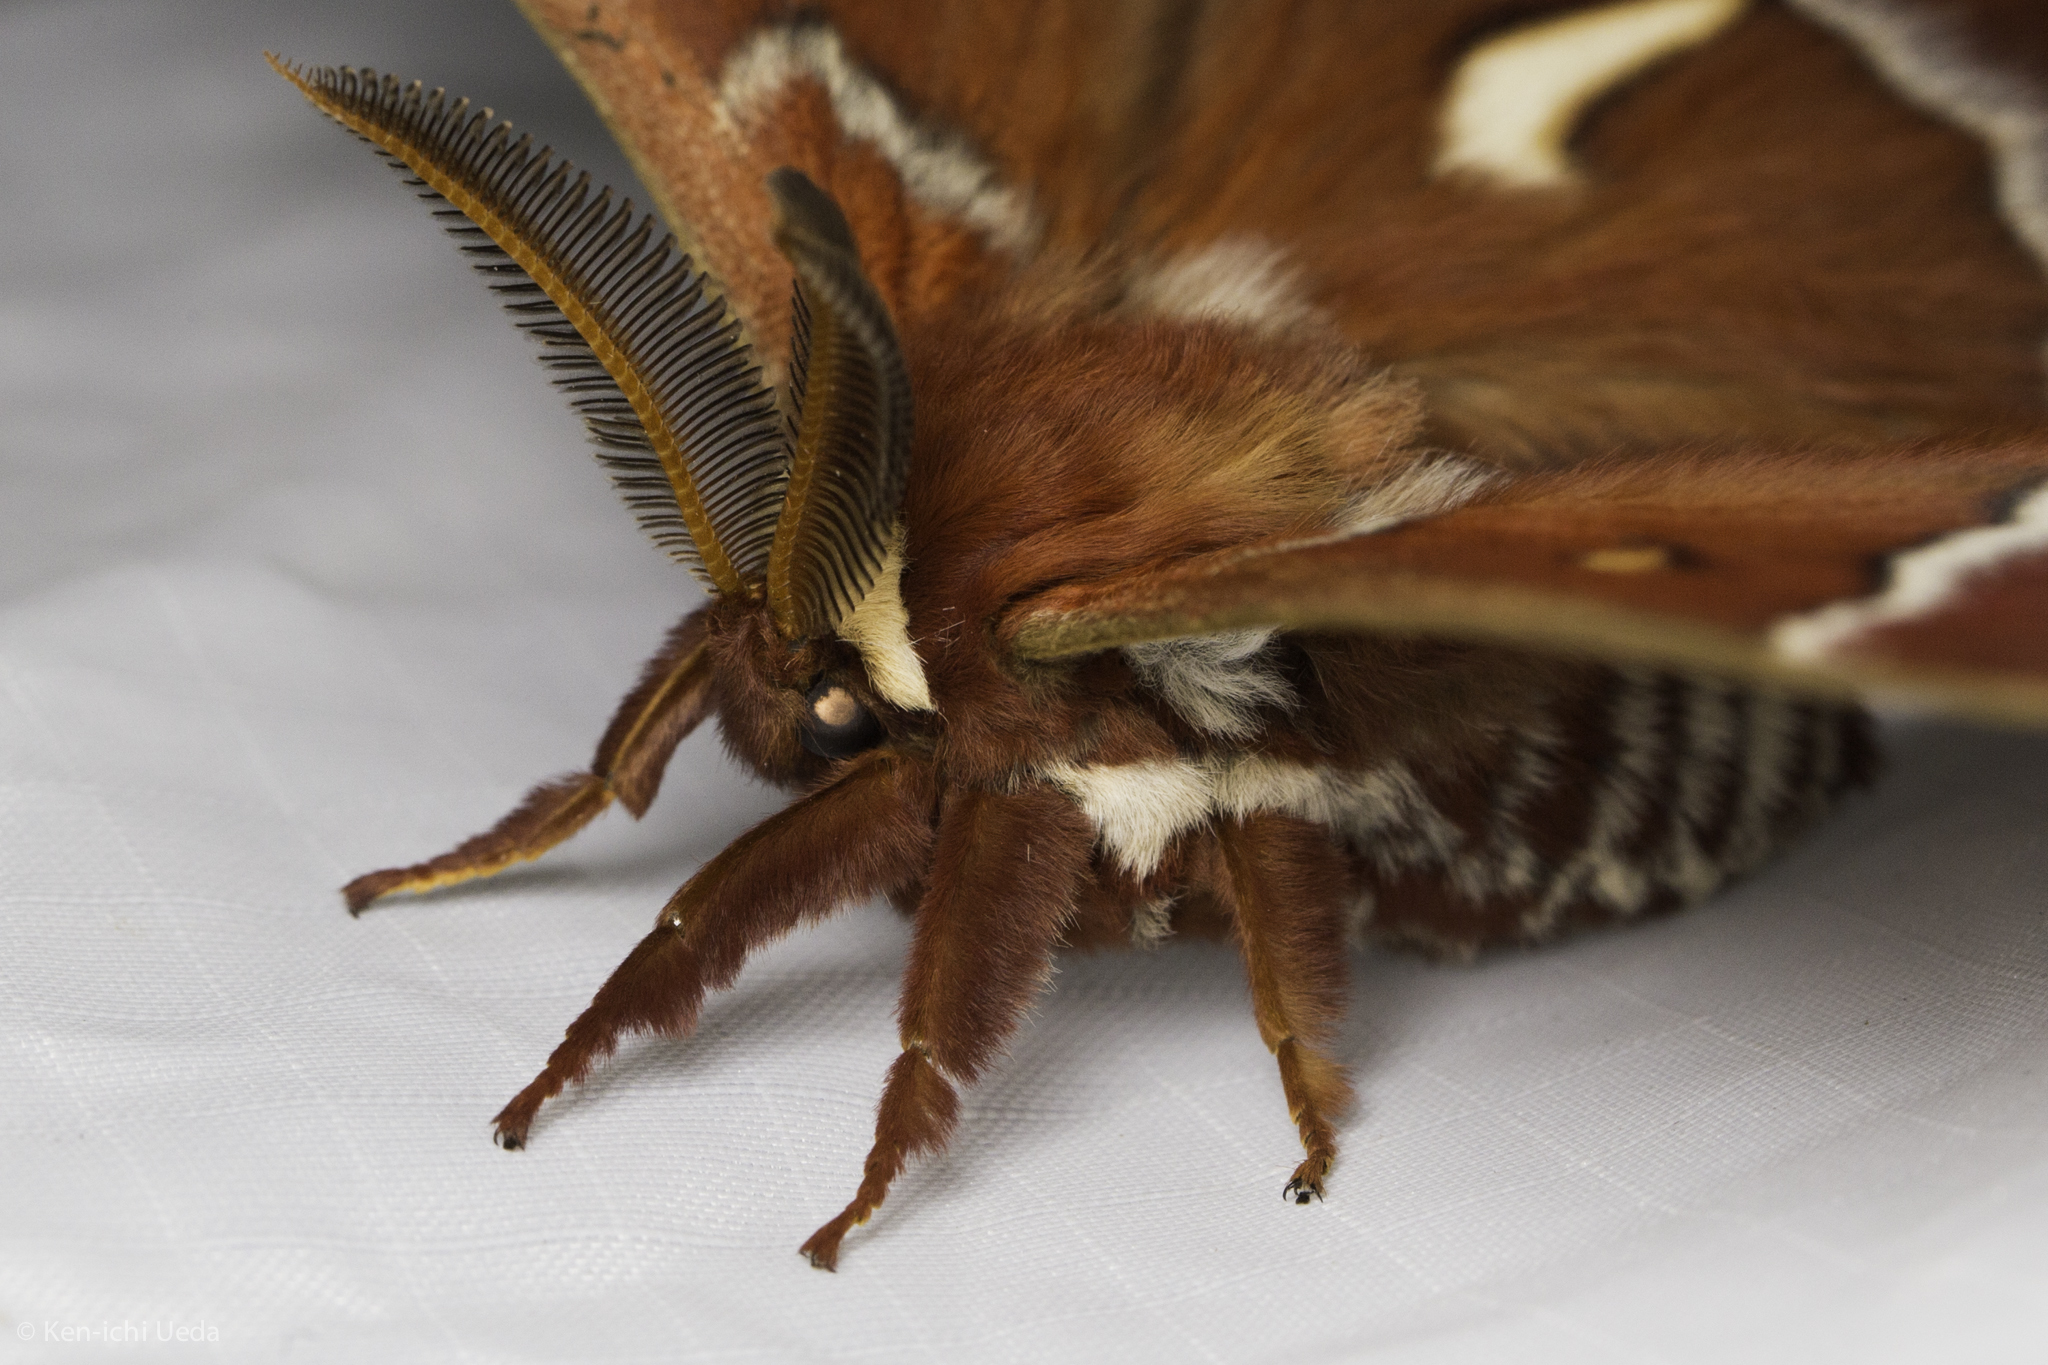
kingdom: Animalia
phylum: Arthropoda
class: Insecta
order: Lepidoptera
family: Saturniidae
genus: Hyalophora
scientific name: Hyalophora euryalus
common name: Ceanothus silkmoth
